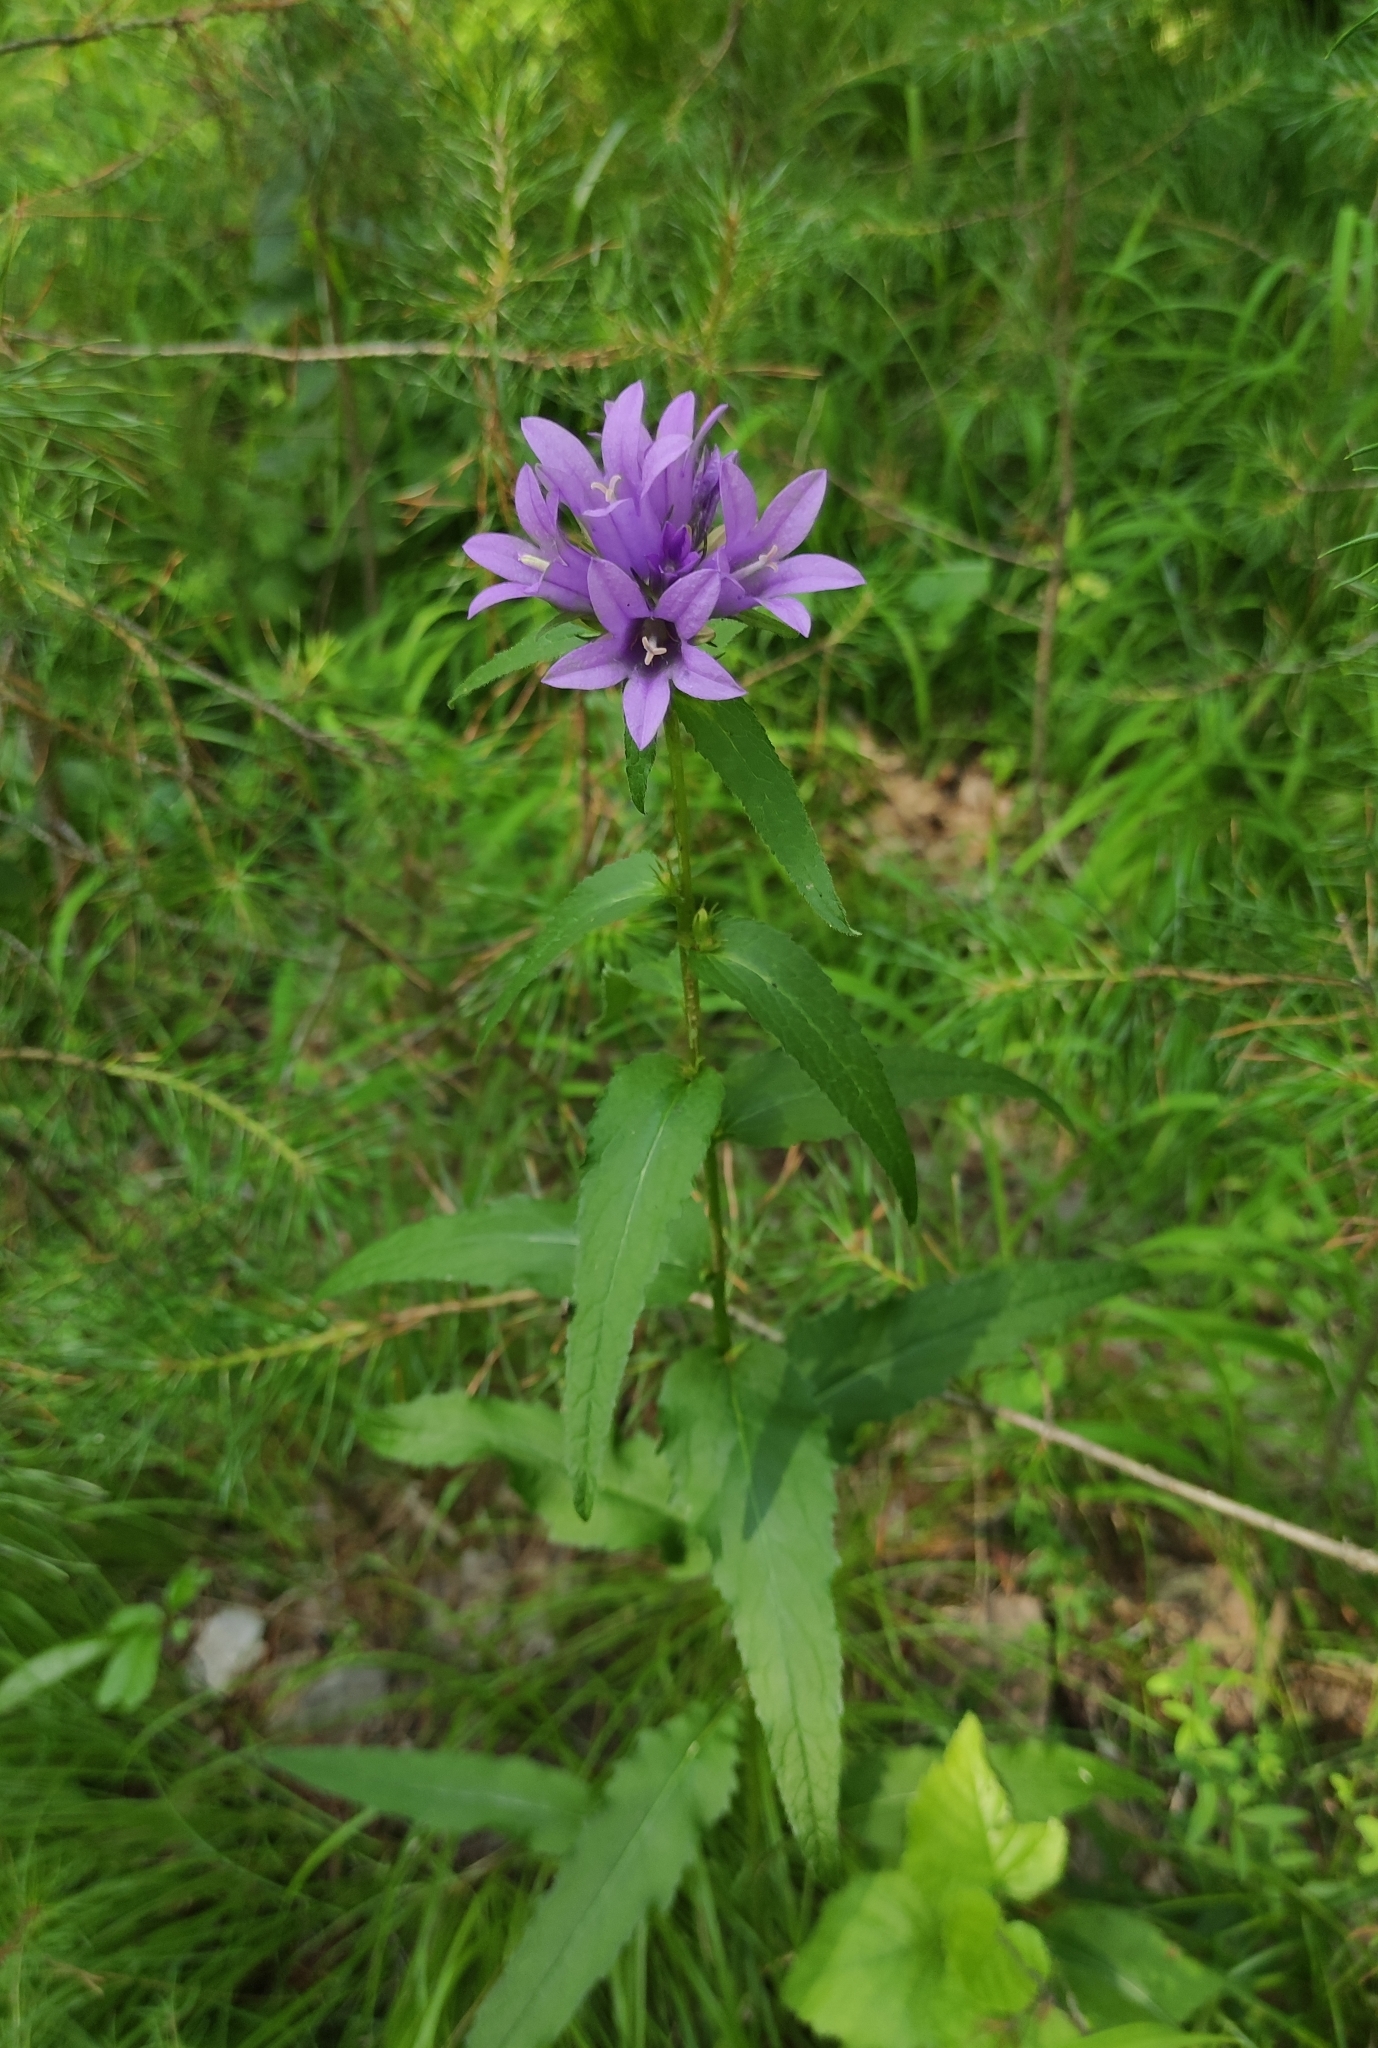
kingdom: Plantae
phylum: Tracheophyta
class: Magnoliopsida
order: Asterales
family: Campanulaceae
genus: Campanula
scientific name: Campanula glomerata
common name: Clustered bellflower
